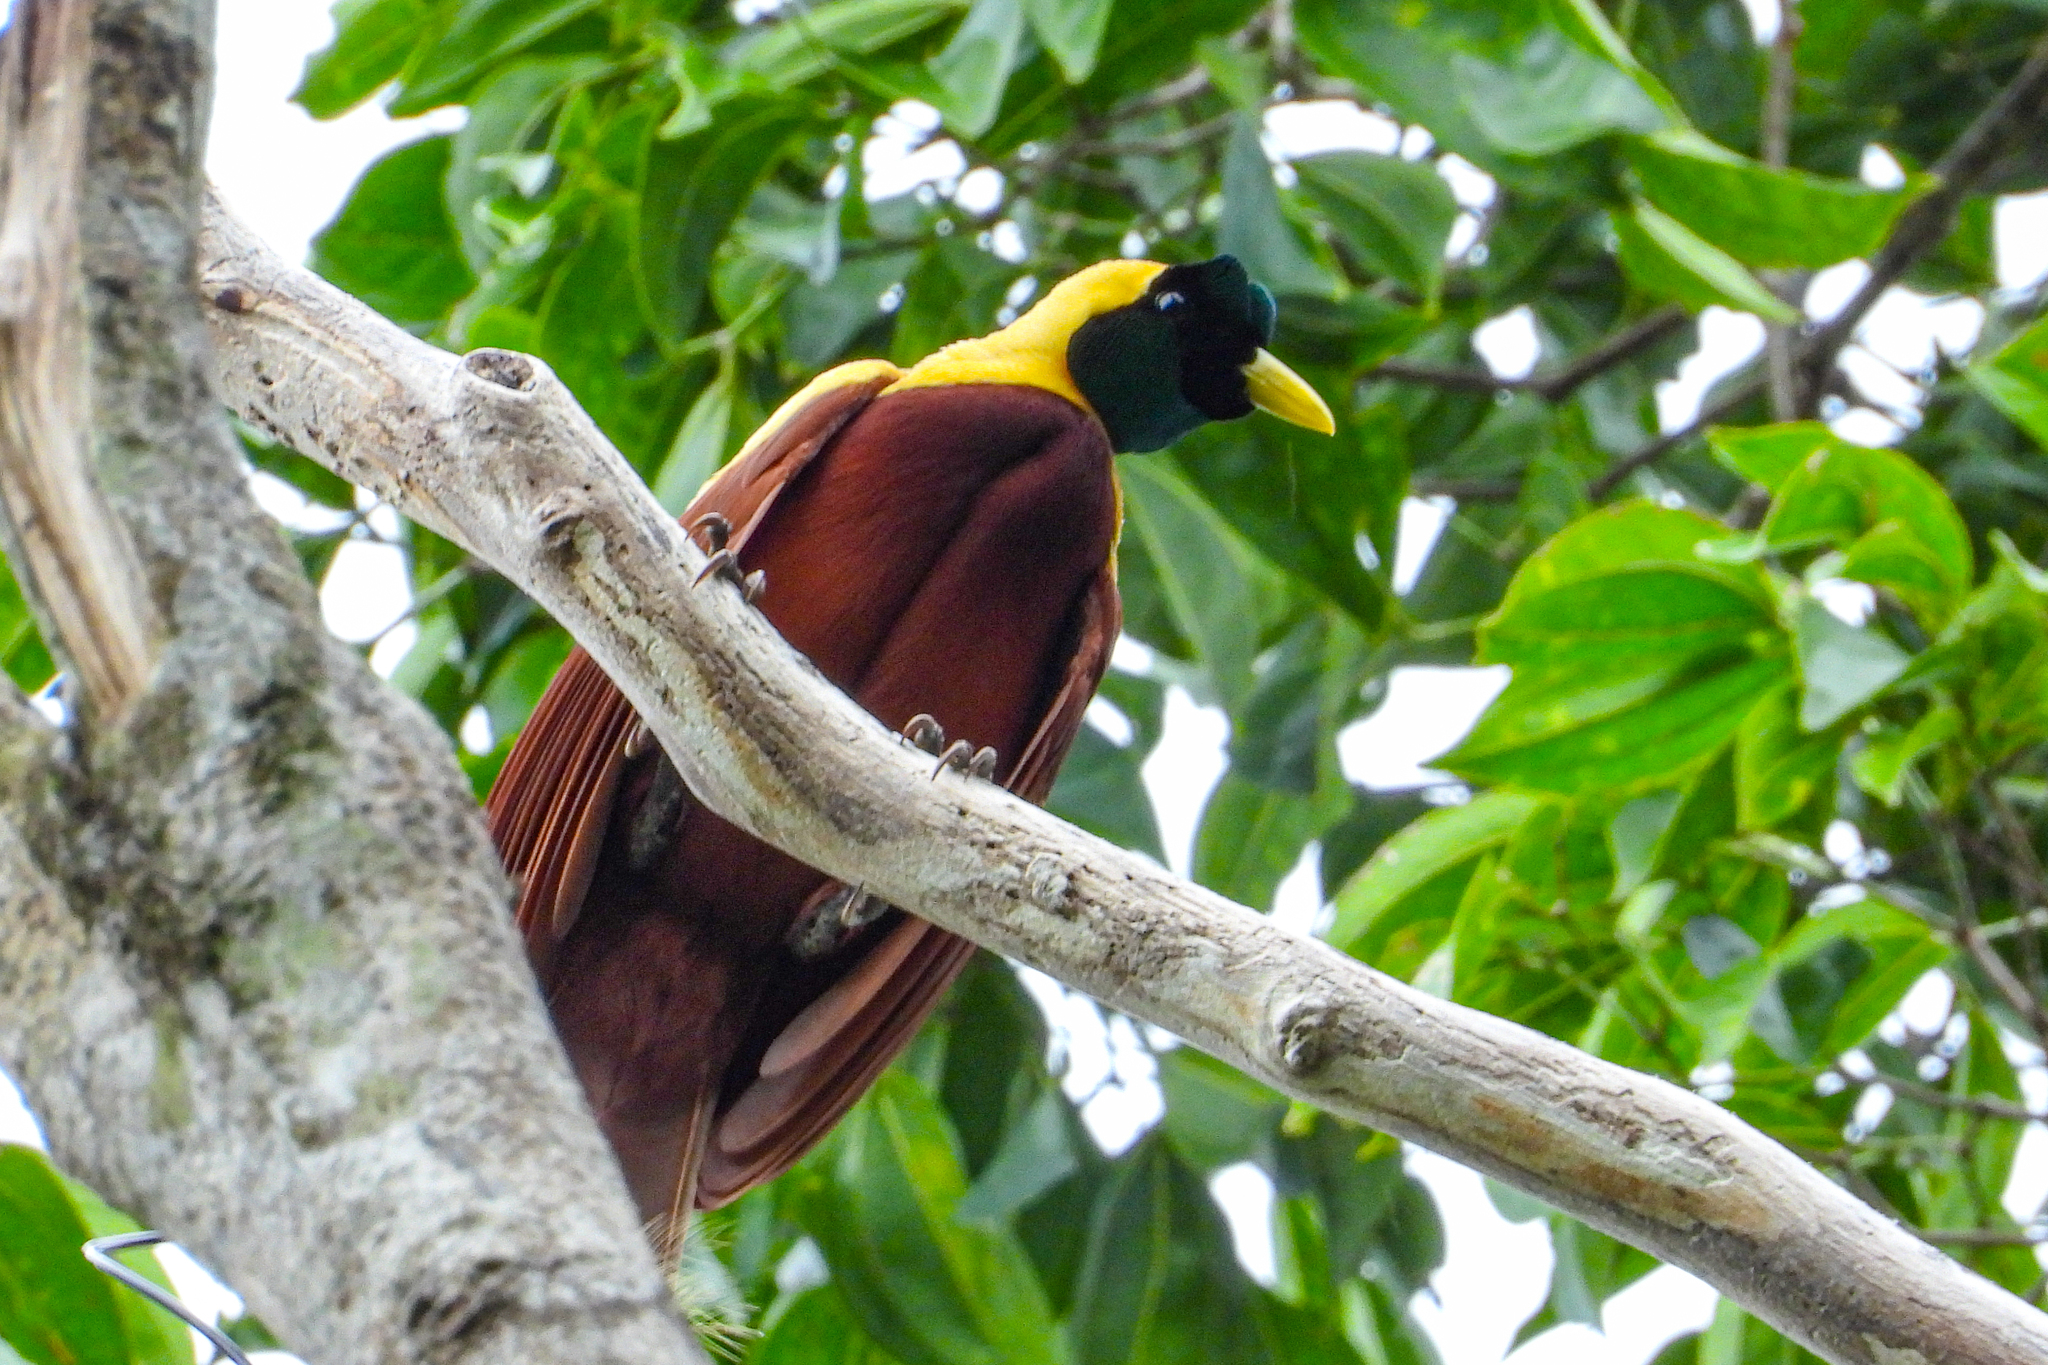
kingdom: Animalia
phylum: Chordata
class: Aves
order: Passeriformes
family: Paradisaeidae
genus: Paradisaea
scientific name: Paradisaea rubra
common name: Red bird-of-paradise
